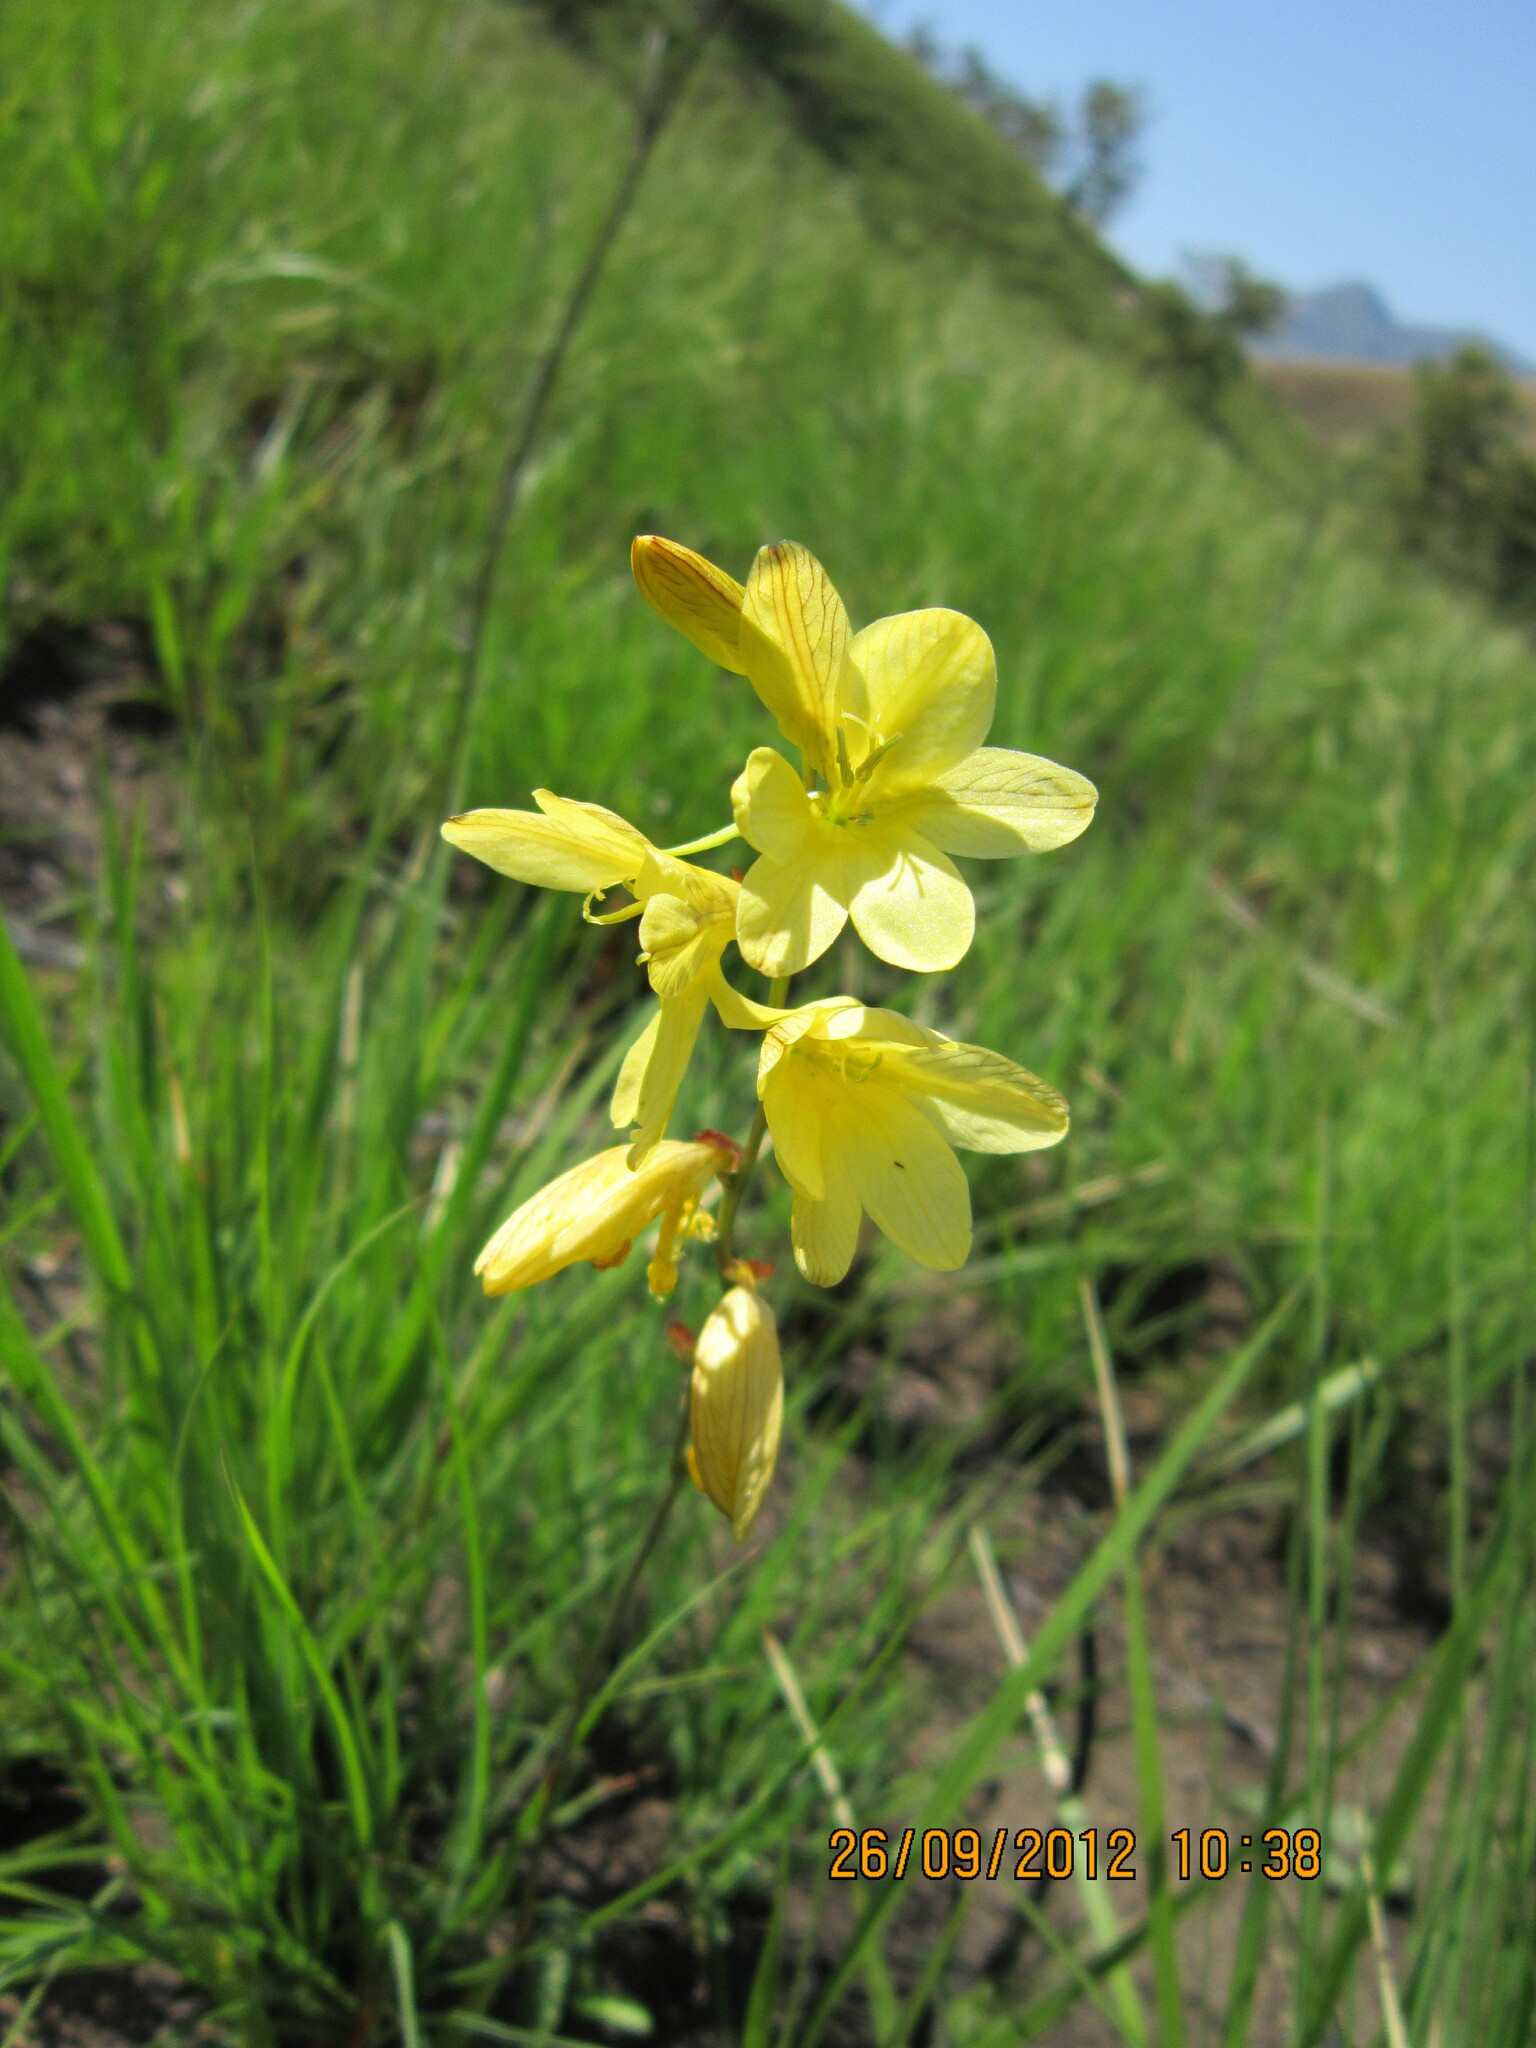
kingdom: Plantae
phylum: Tracheophyta
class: Liliopsida
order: Asparagales
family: Iridaceae
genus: Tritonia
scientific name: Tritonia gladiolaris
